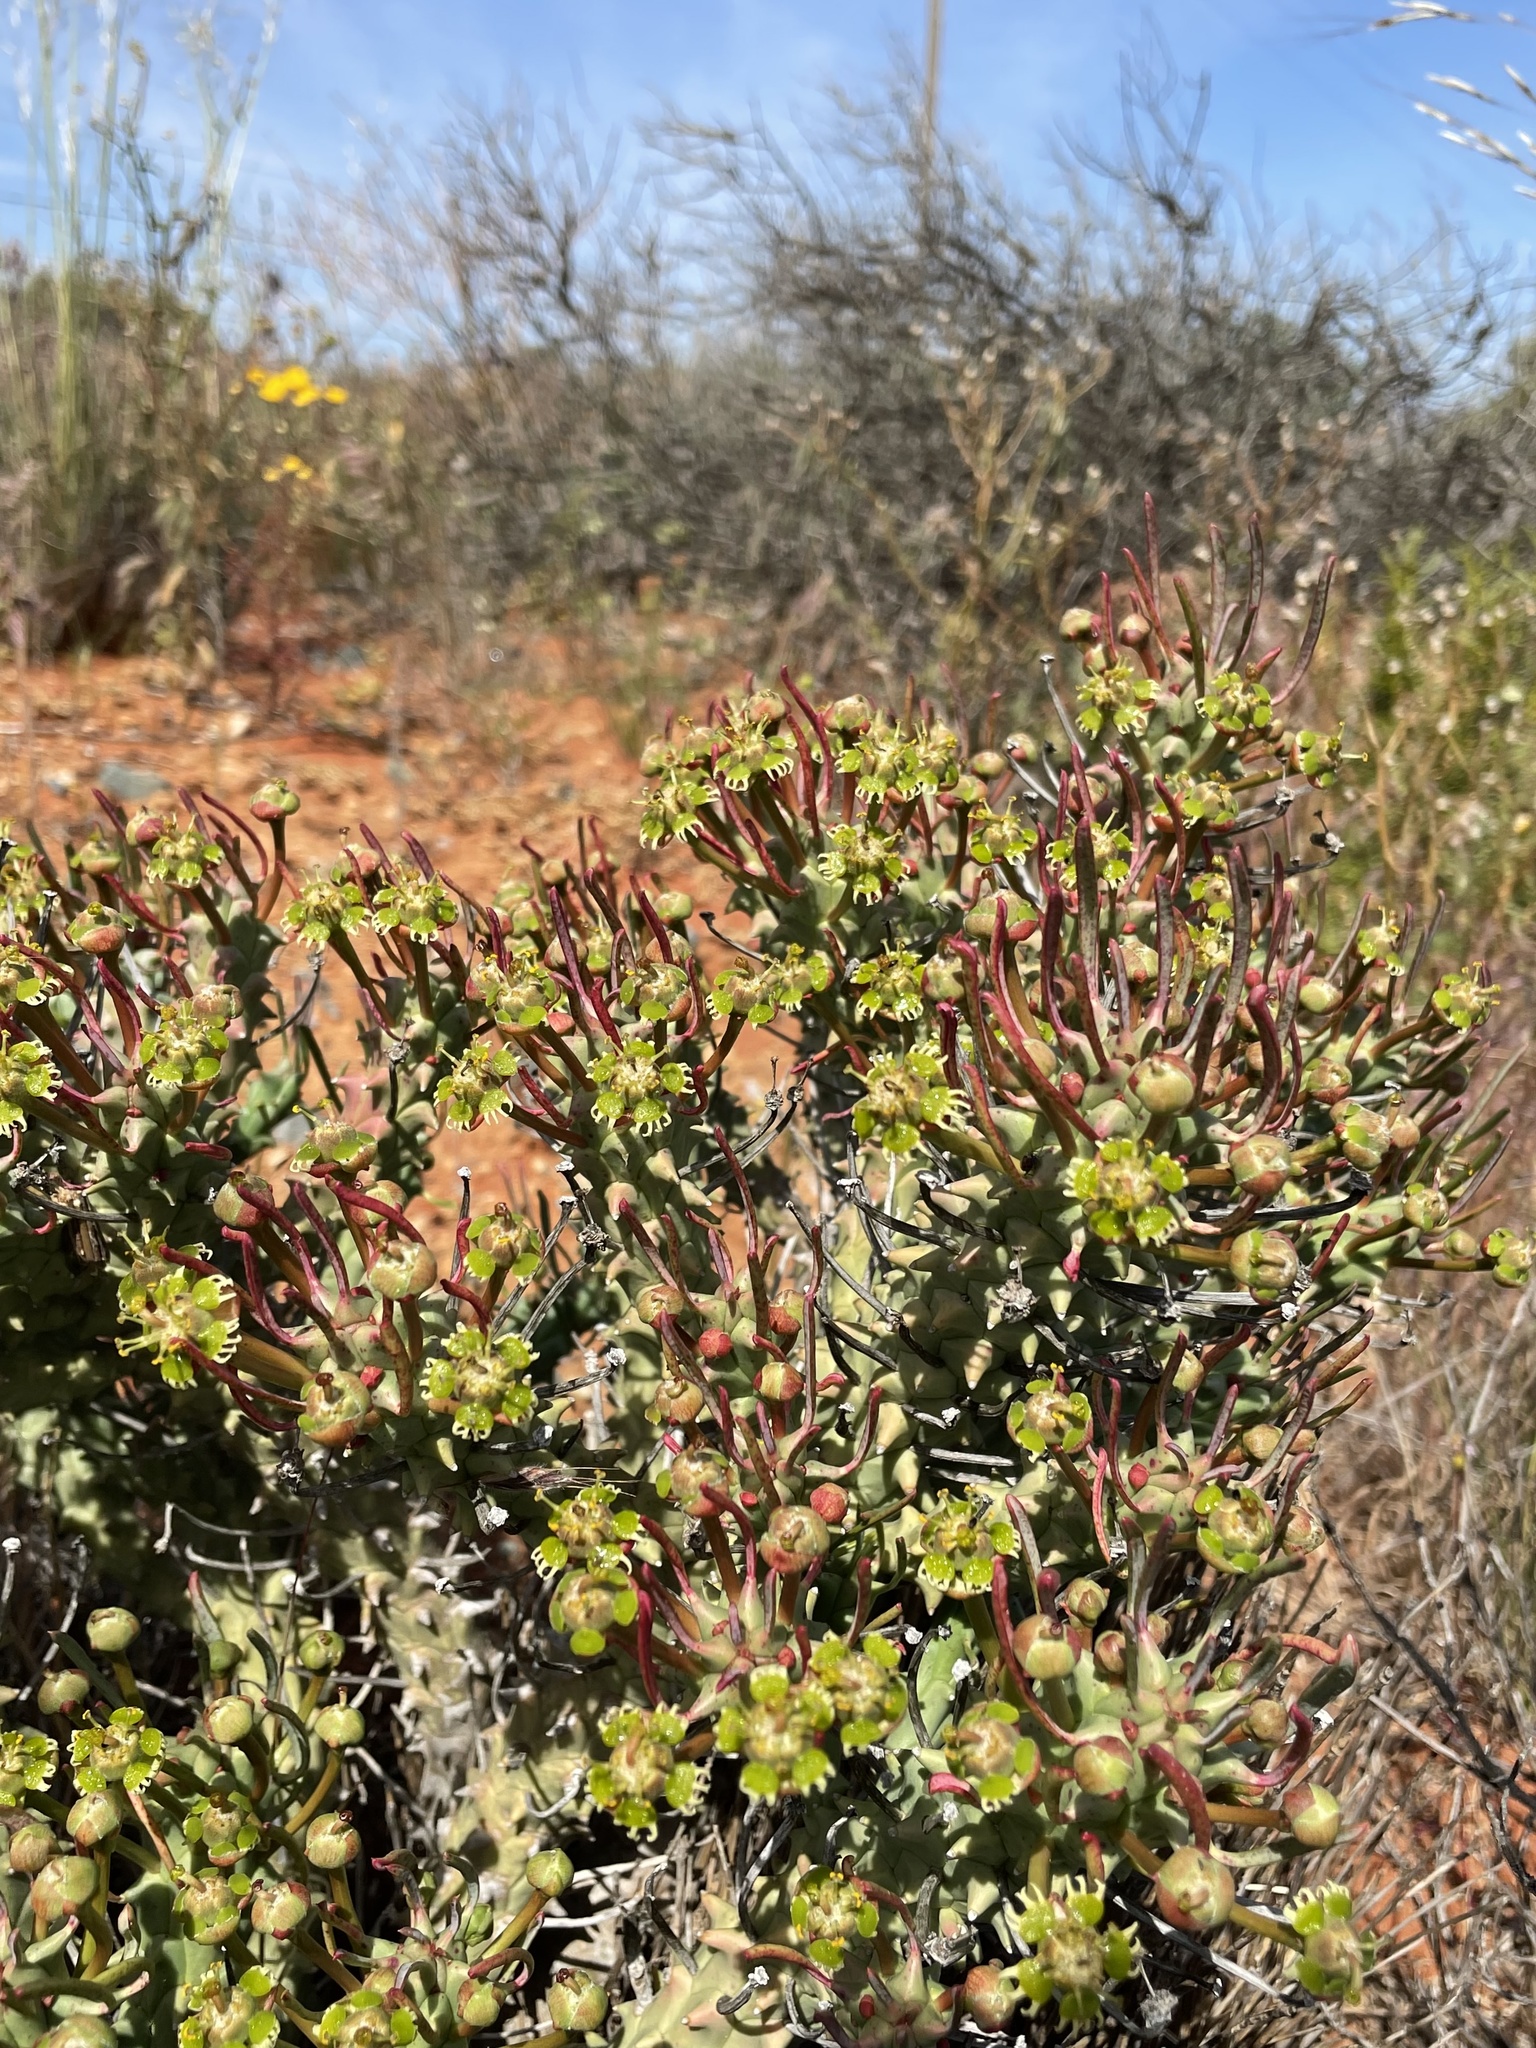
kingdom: Plantae
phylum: Tracheophyta
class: Magnoliopsida
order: Malpighiales
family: Euphorbiaceae
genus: Euphorbia
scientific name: Euphorbia caput-medusae
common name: Medusa's-head
